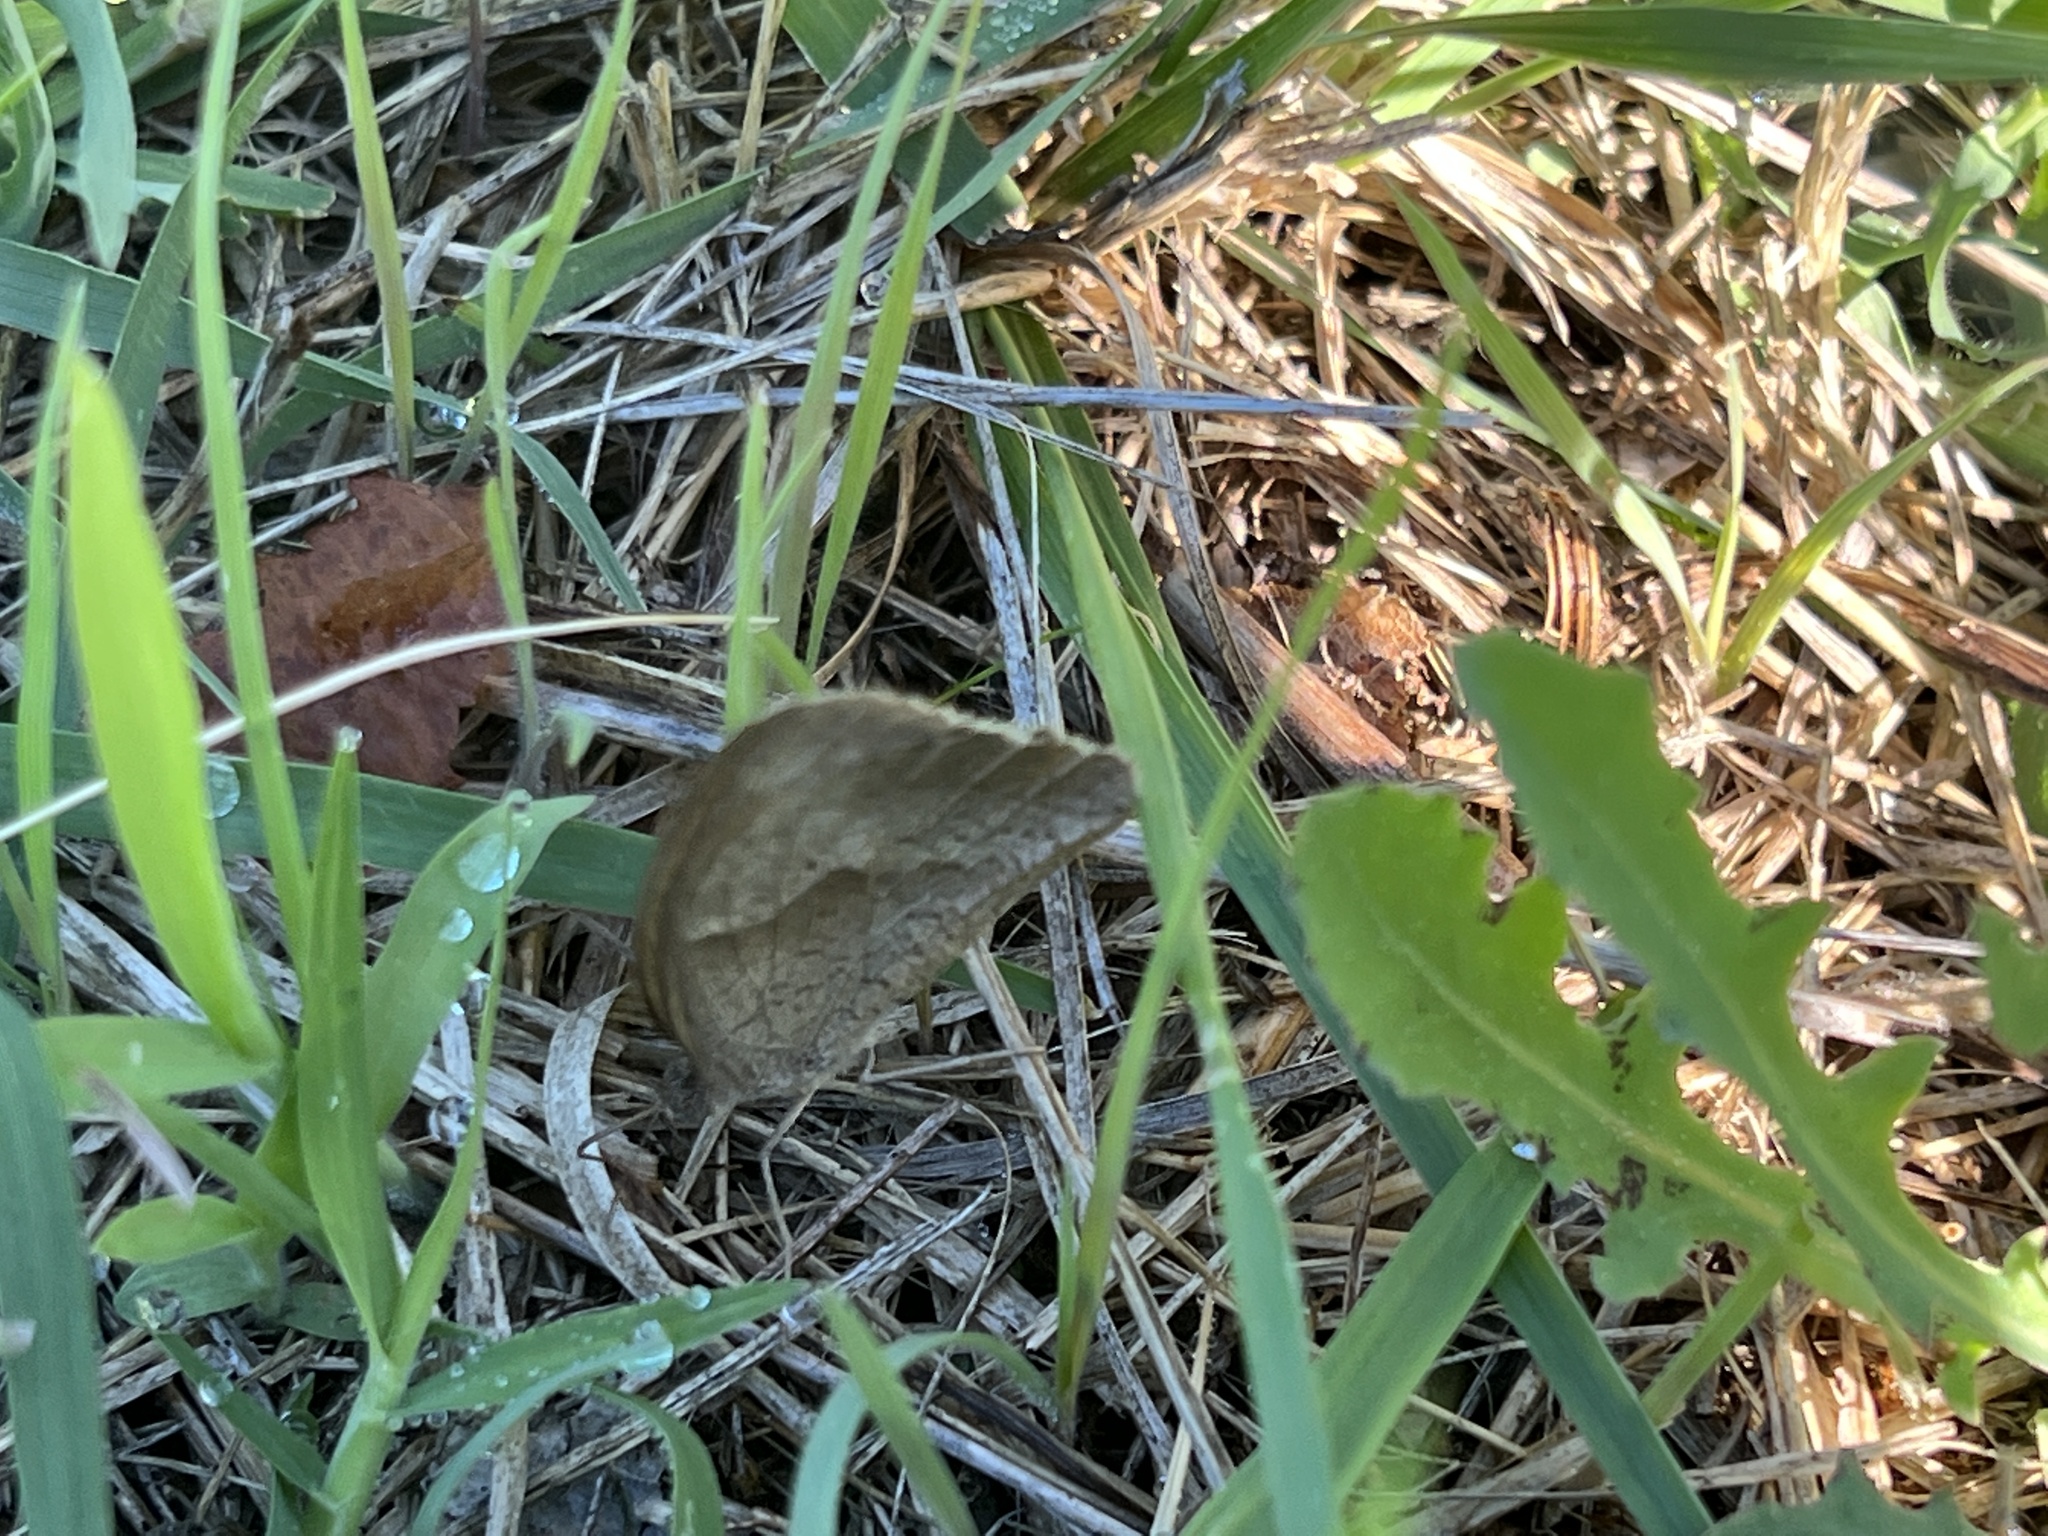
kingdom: Animalia
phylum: Arthropoda
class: Insecta
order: Lepidoptera
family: Nymphalidae
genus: Maniola
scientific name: Maniola jurtina
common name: Meadow brown
